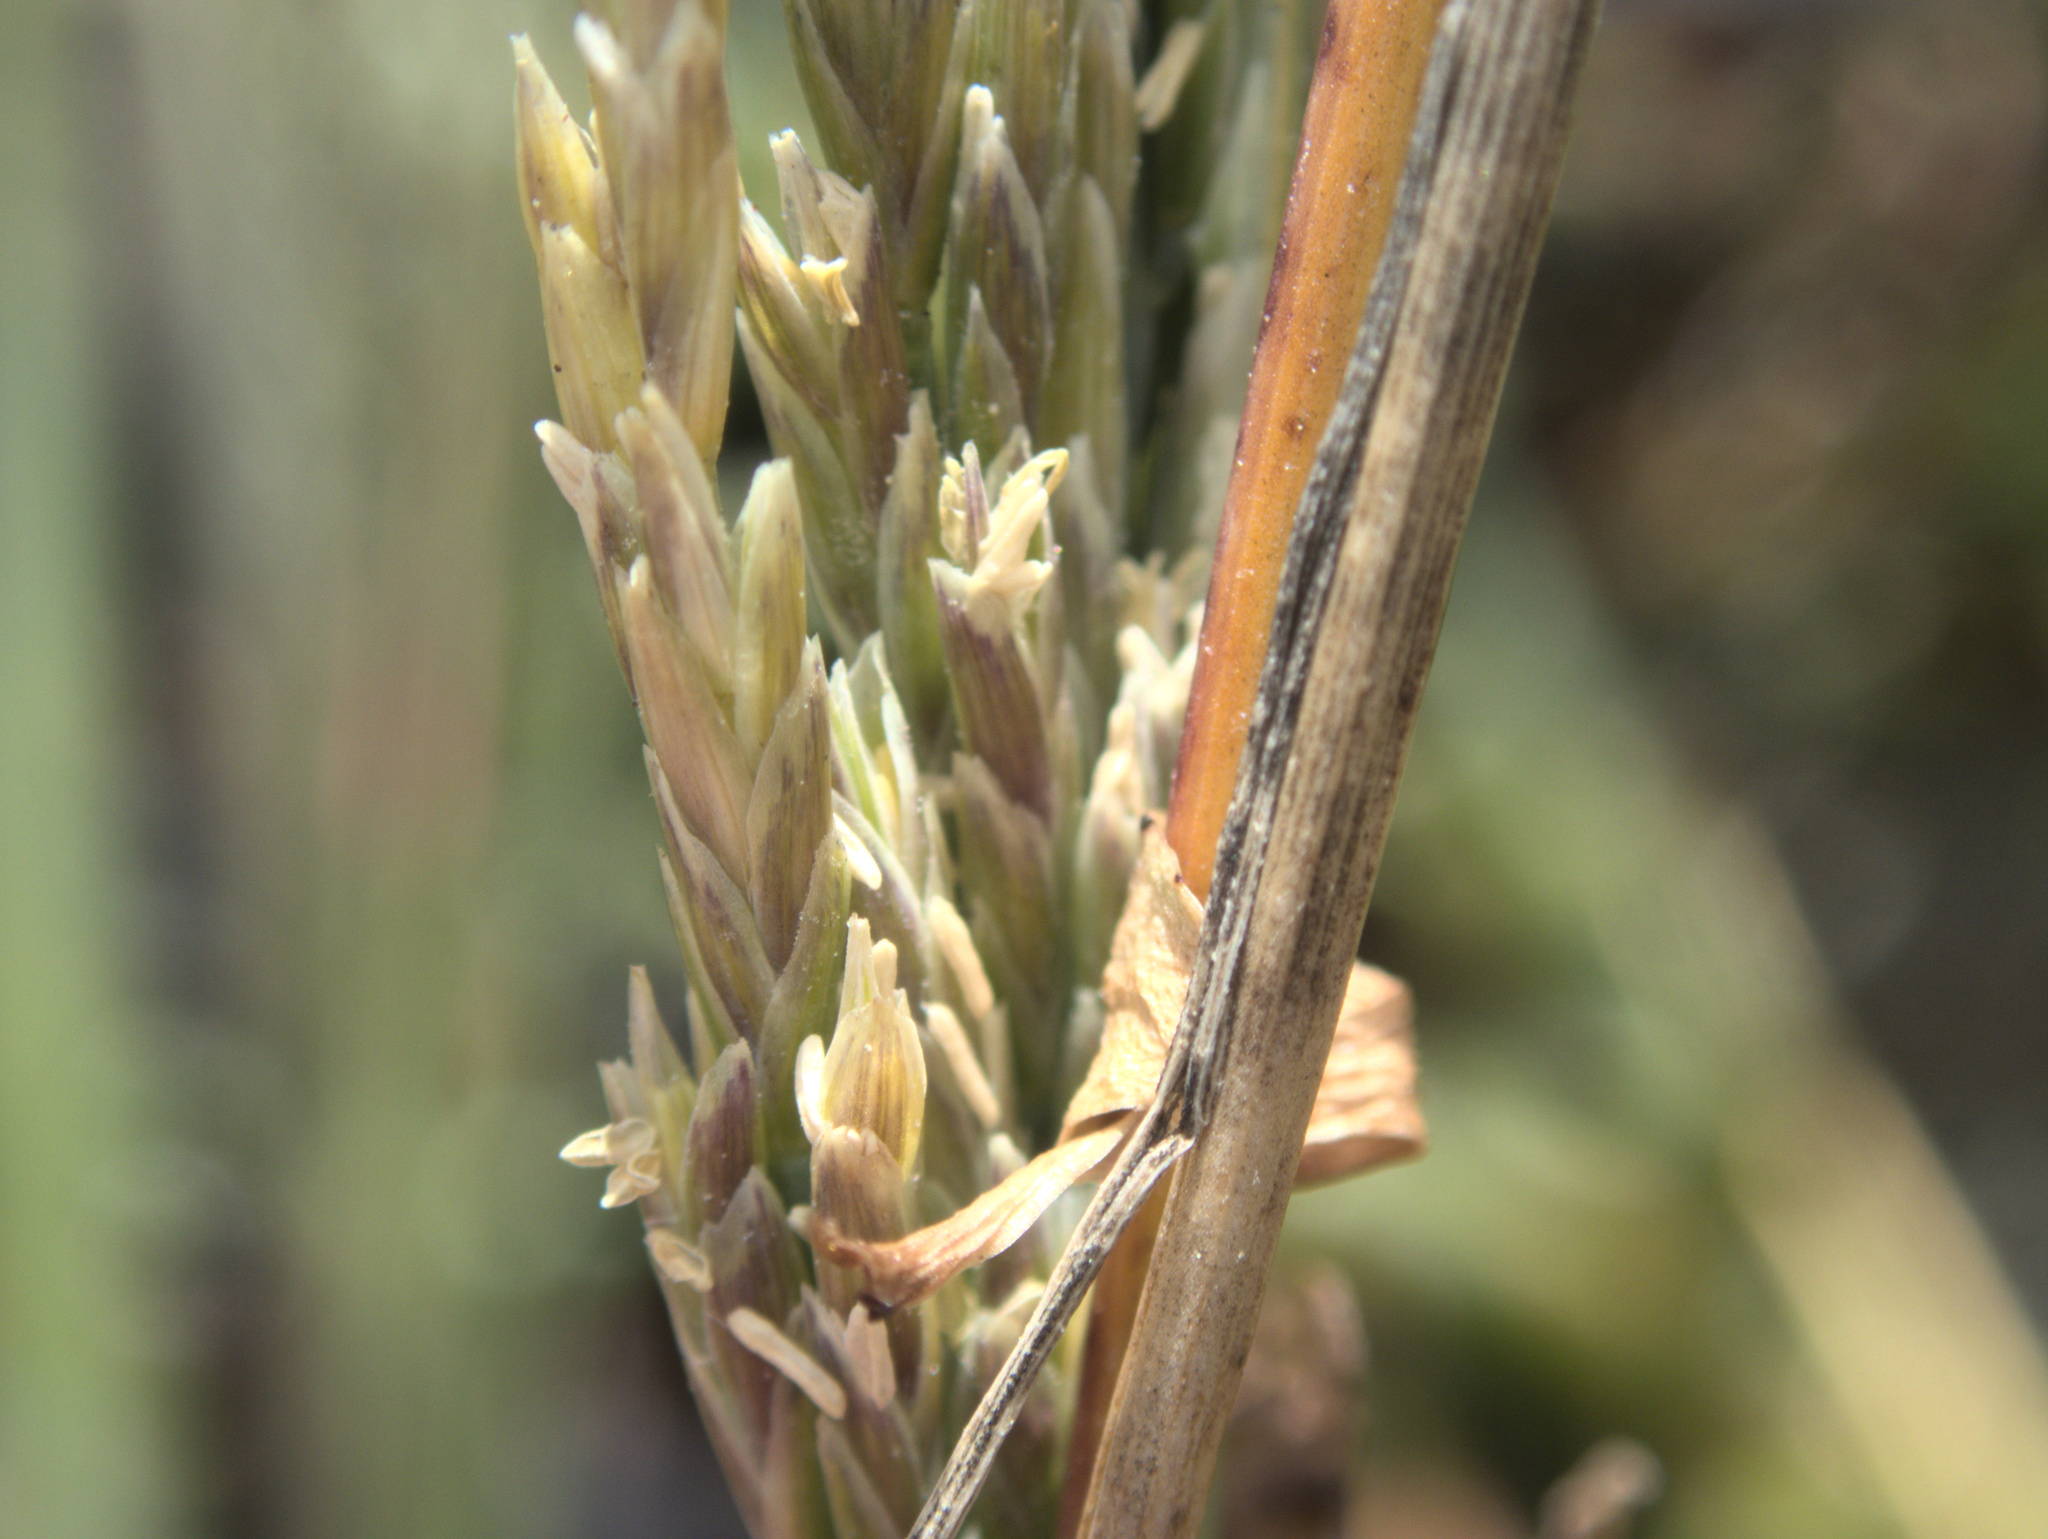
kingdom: Plantae
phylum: Tracheophyta
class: Liliopsida
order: Poales
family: Poaceae
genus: Puccinellia
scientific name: Puccinellia walkeri
